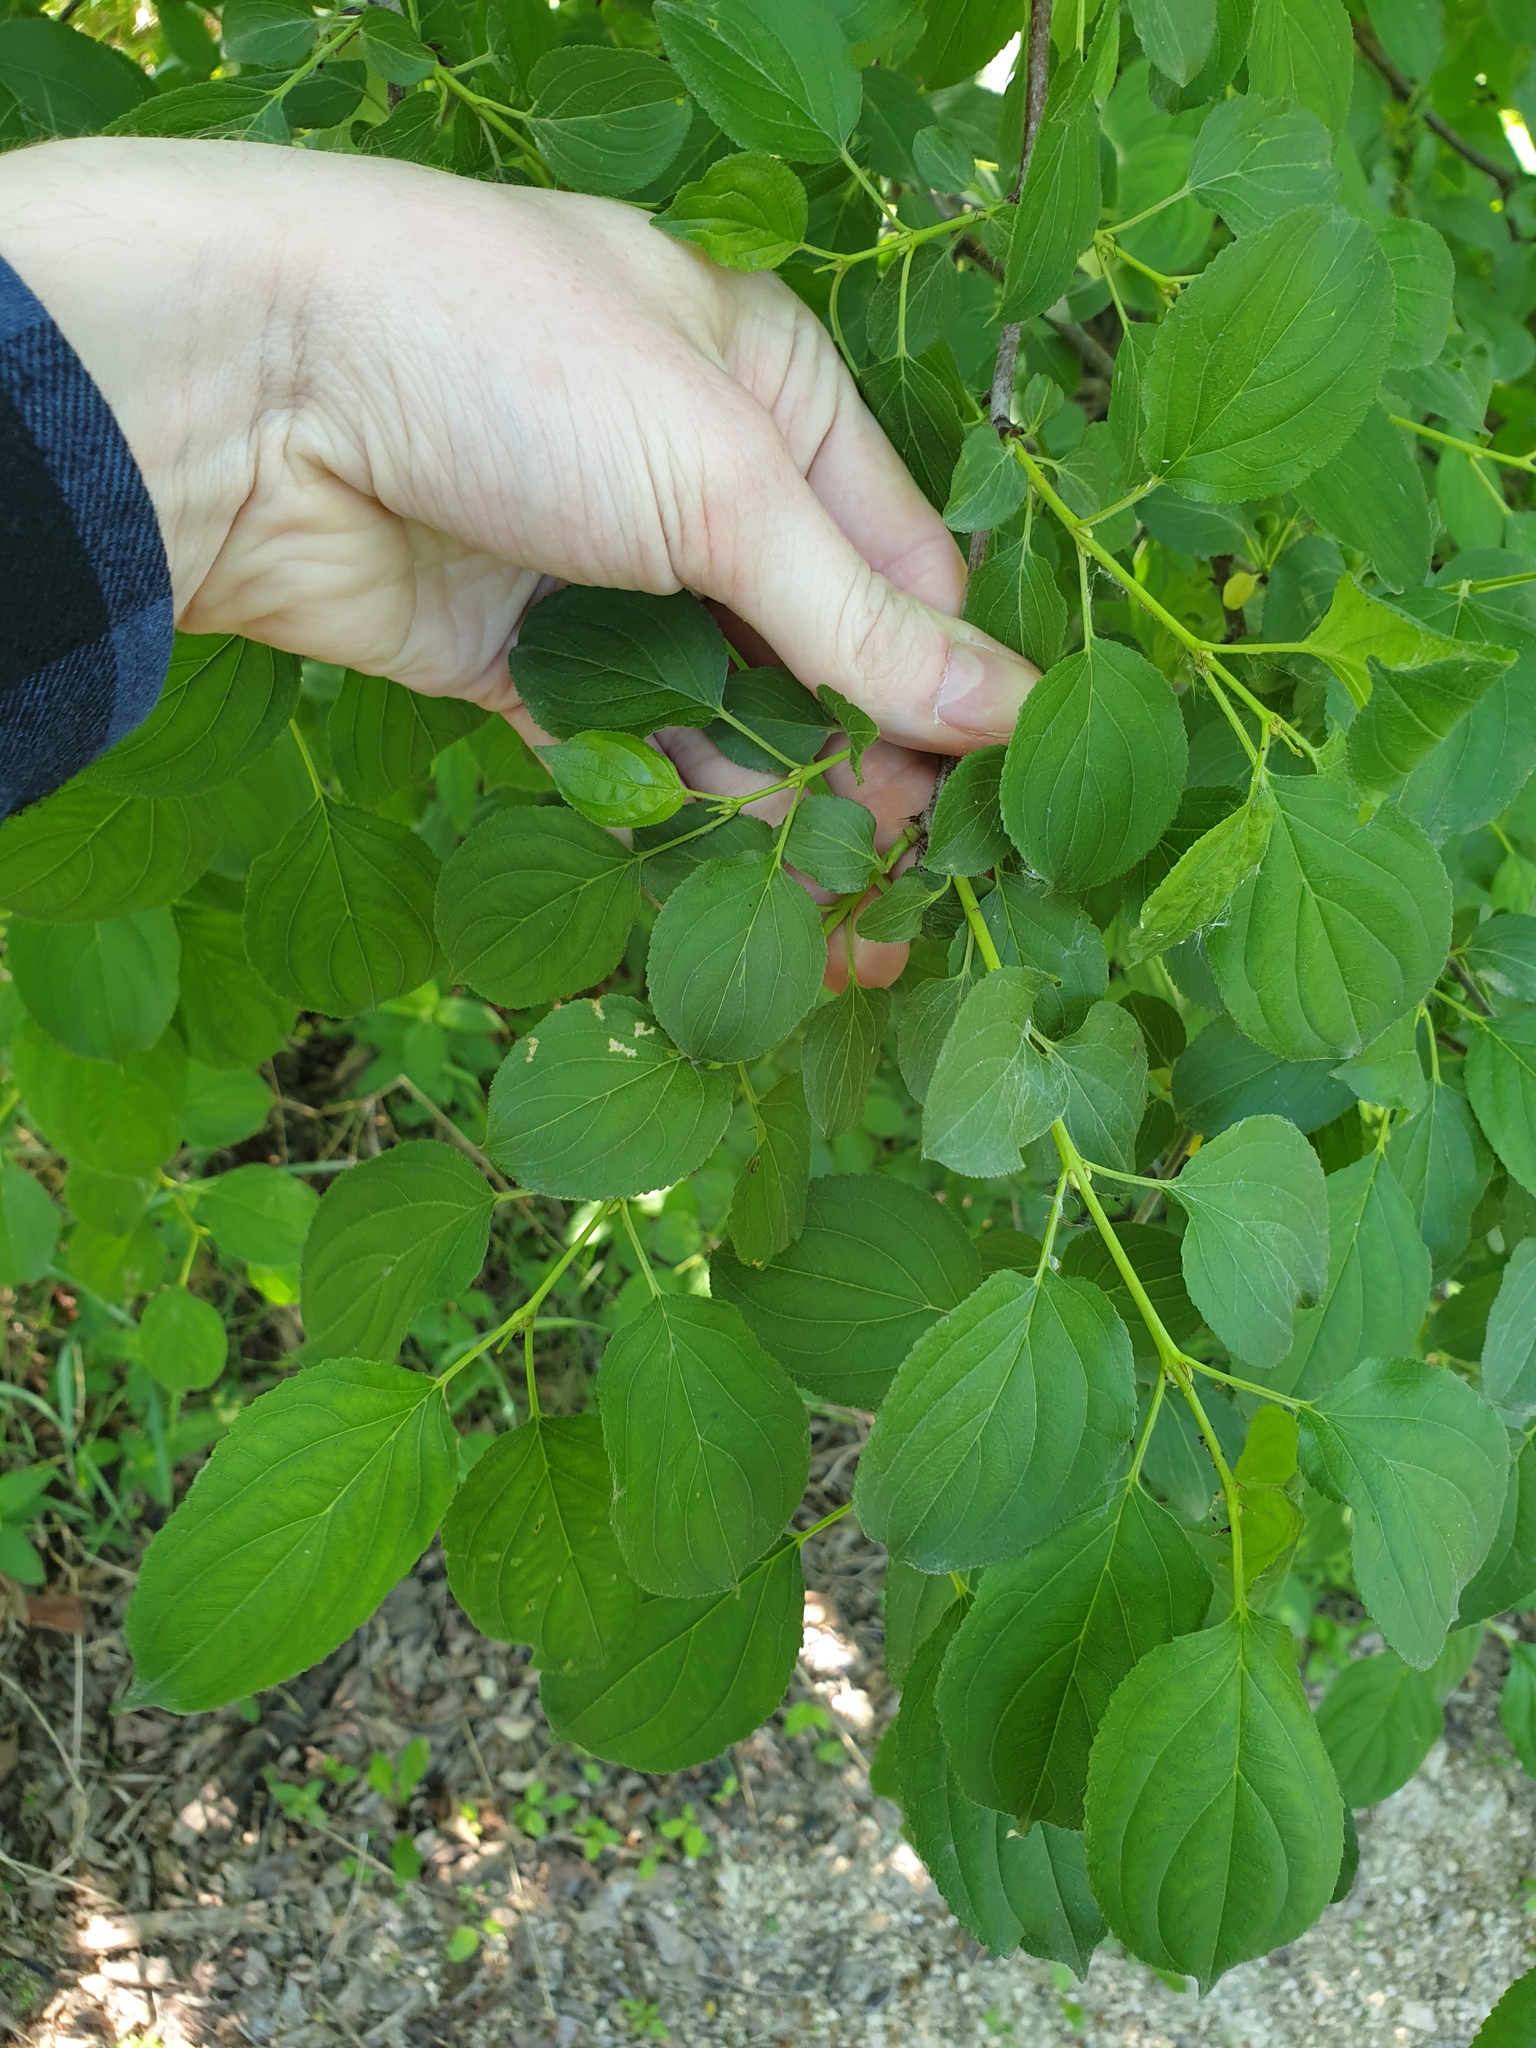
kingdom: Plantae
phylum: Tracheophyta
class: Magnoliopsida
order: Rosales
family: Rhamnaceae
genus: Rhamnus
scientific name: Rhamnus cathartica
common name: Common buckthorn
